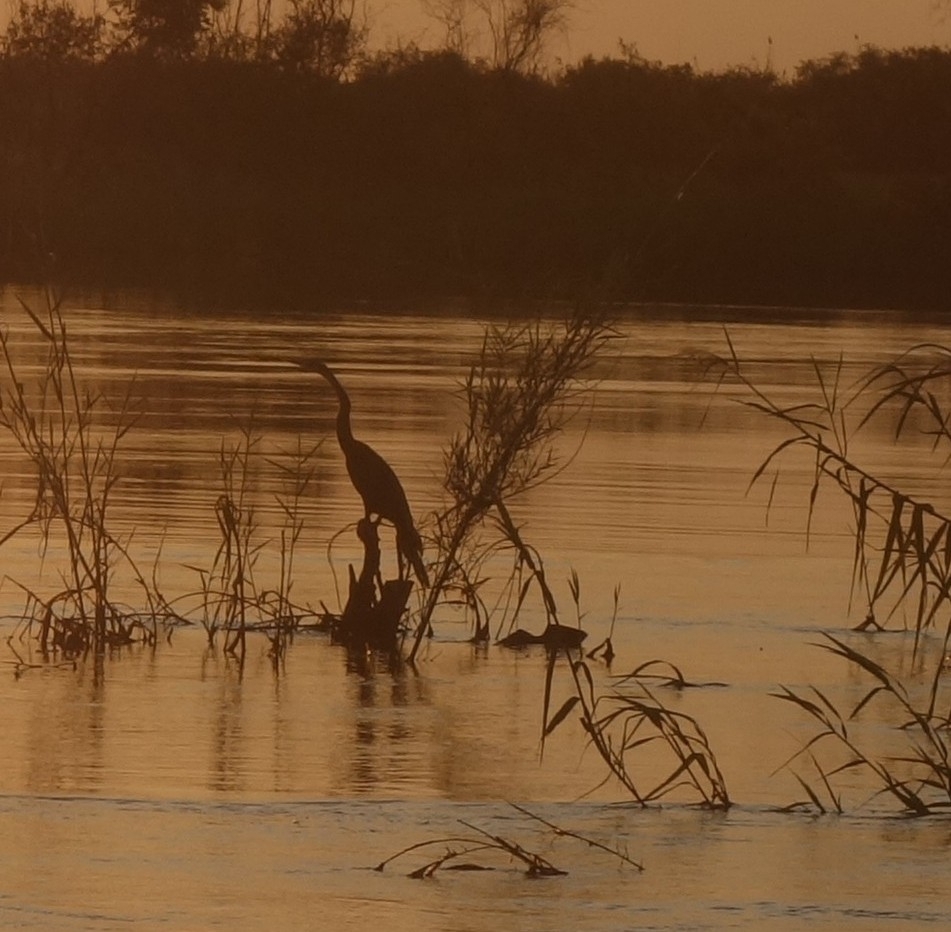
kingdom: Animalia
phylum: Chordata
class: Aves
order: Suliformes
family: Anhingidae
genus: Anhinga
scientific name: Anhinga rufa
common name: African darter
